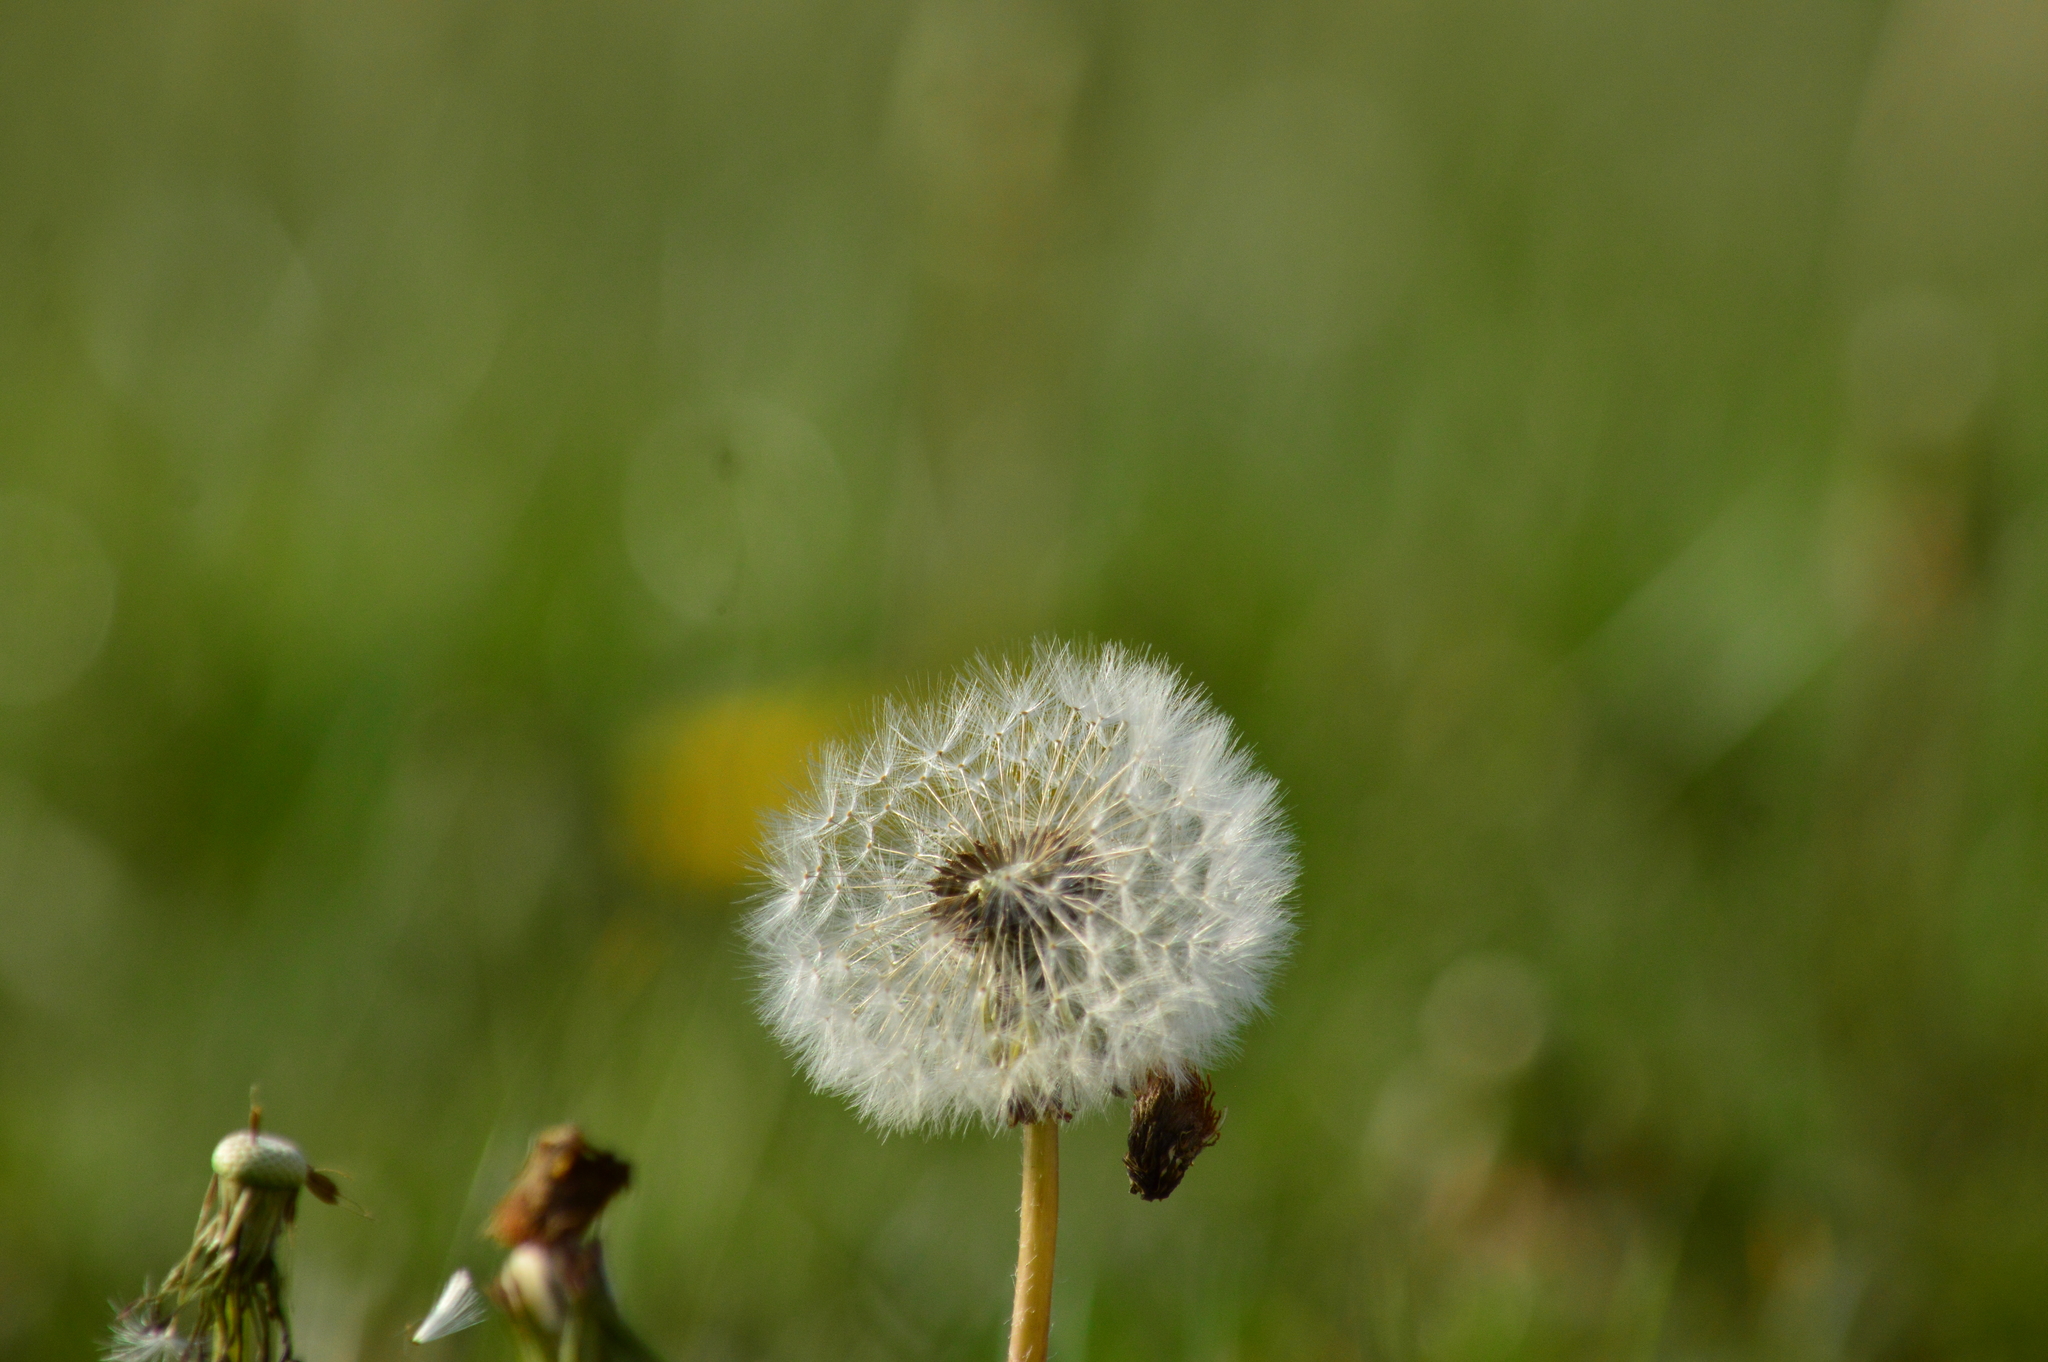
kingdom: Plantae
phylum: Tracheophyta
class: Magnoliopsida
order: Asterales
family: Asteraceae
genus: Taraxacum
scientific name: Taraxacum officinale
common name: Common dandelion
